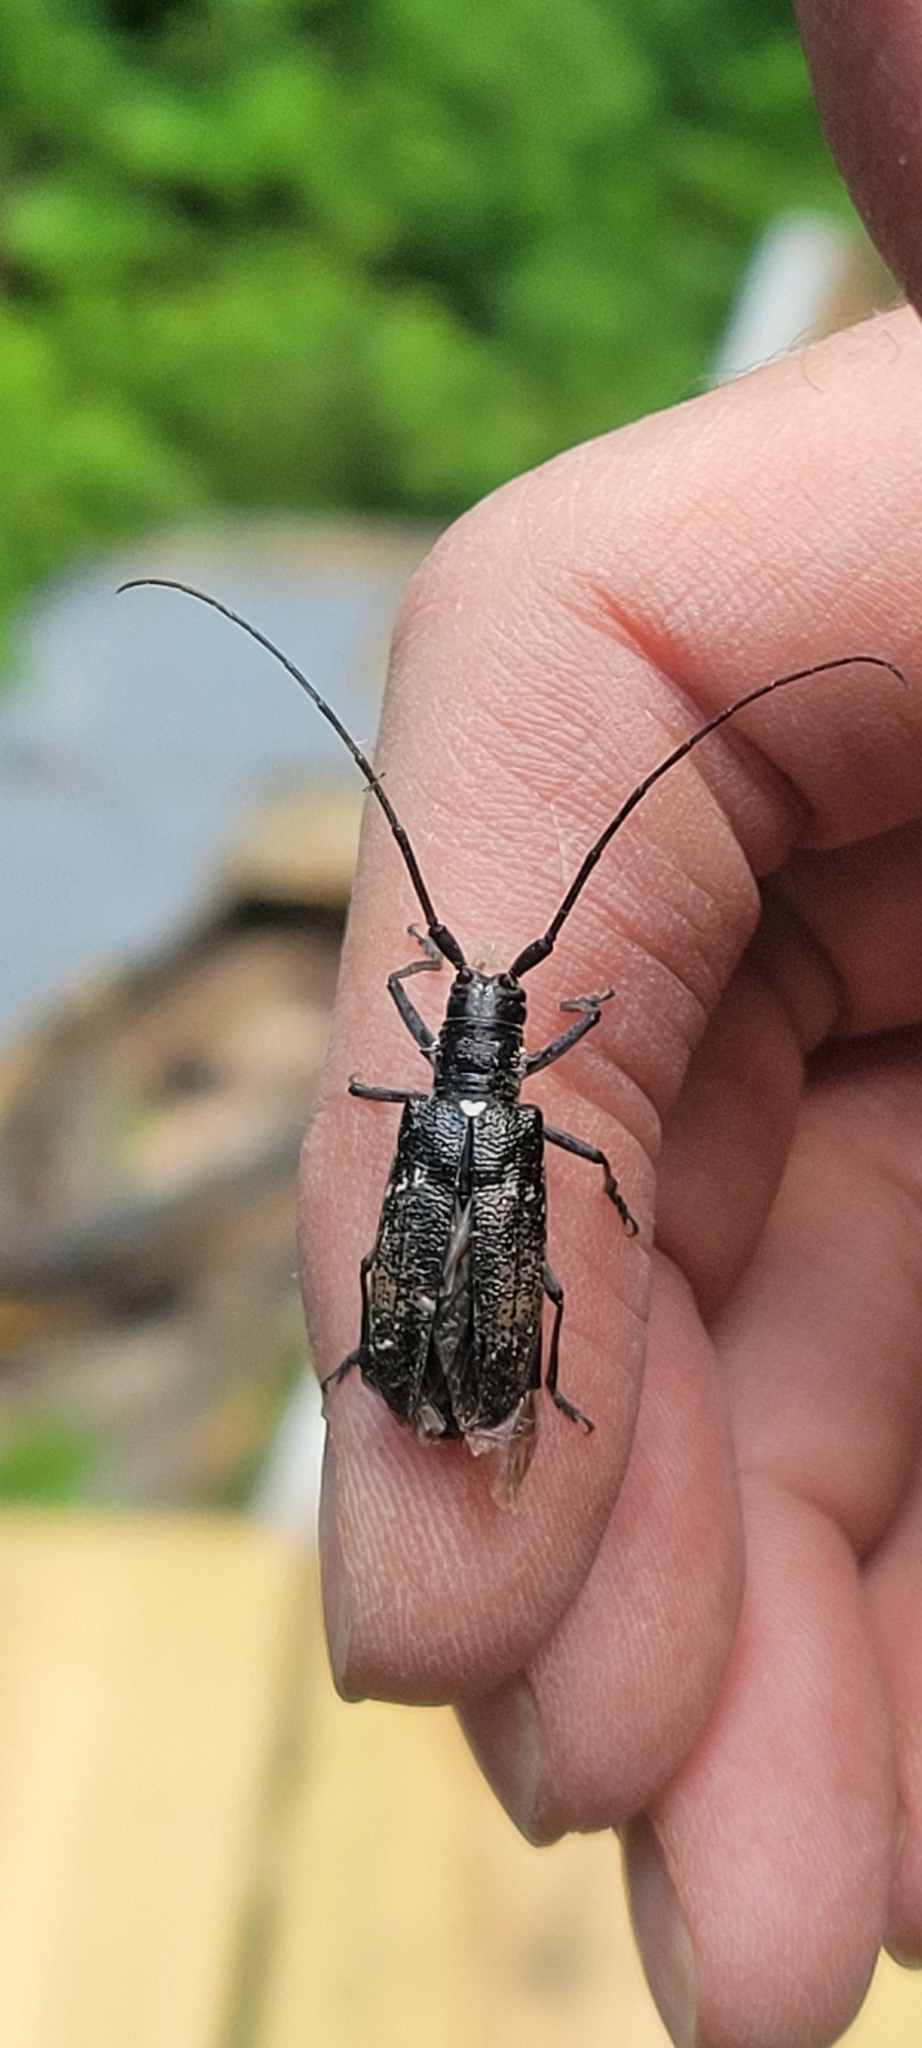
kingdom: Animalia
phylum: Arthropoda
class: Insecta
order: Coleoptera
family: Cerambycidae
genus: Monochamus
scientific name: Monochamus scutellatus
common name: White-spotted sawyer beetle
